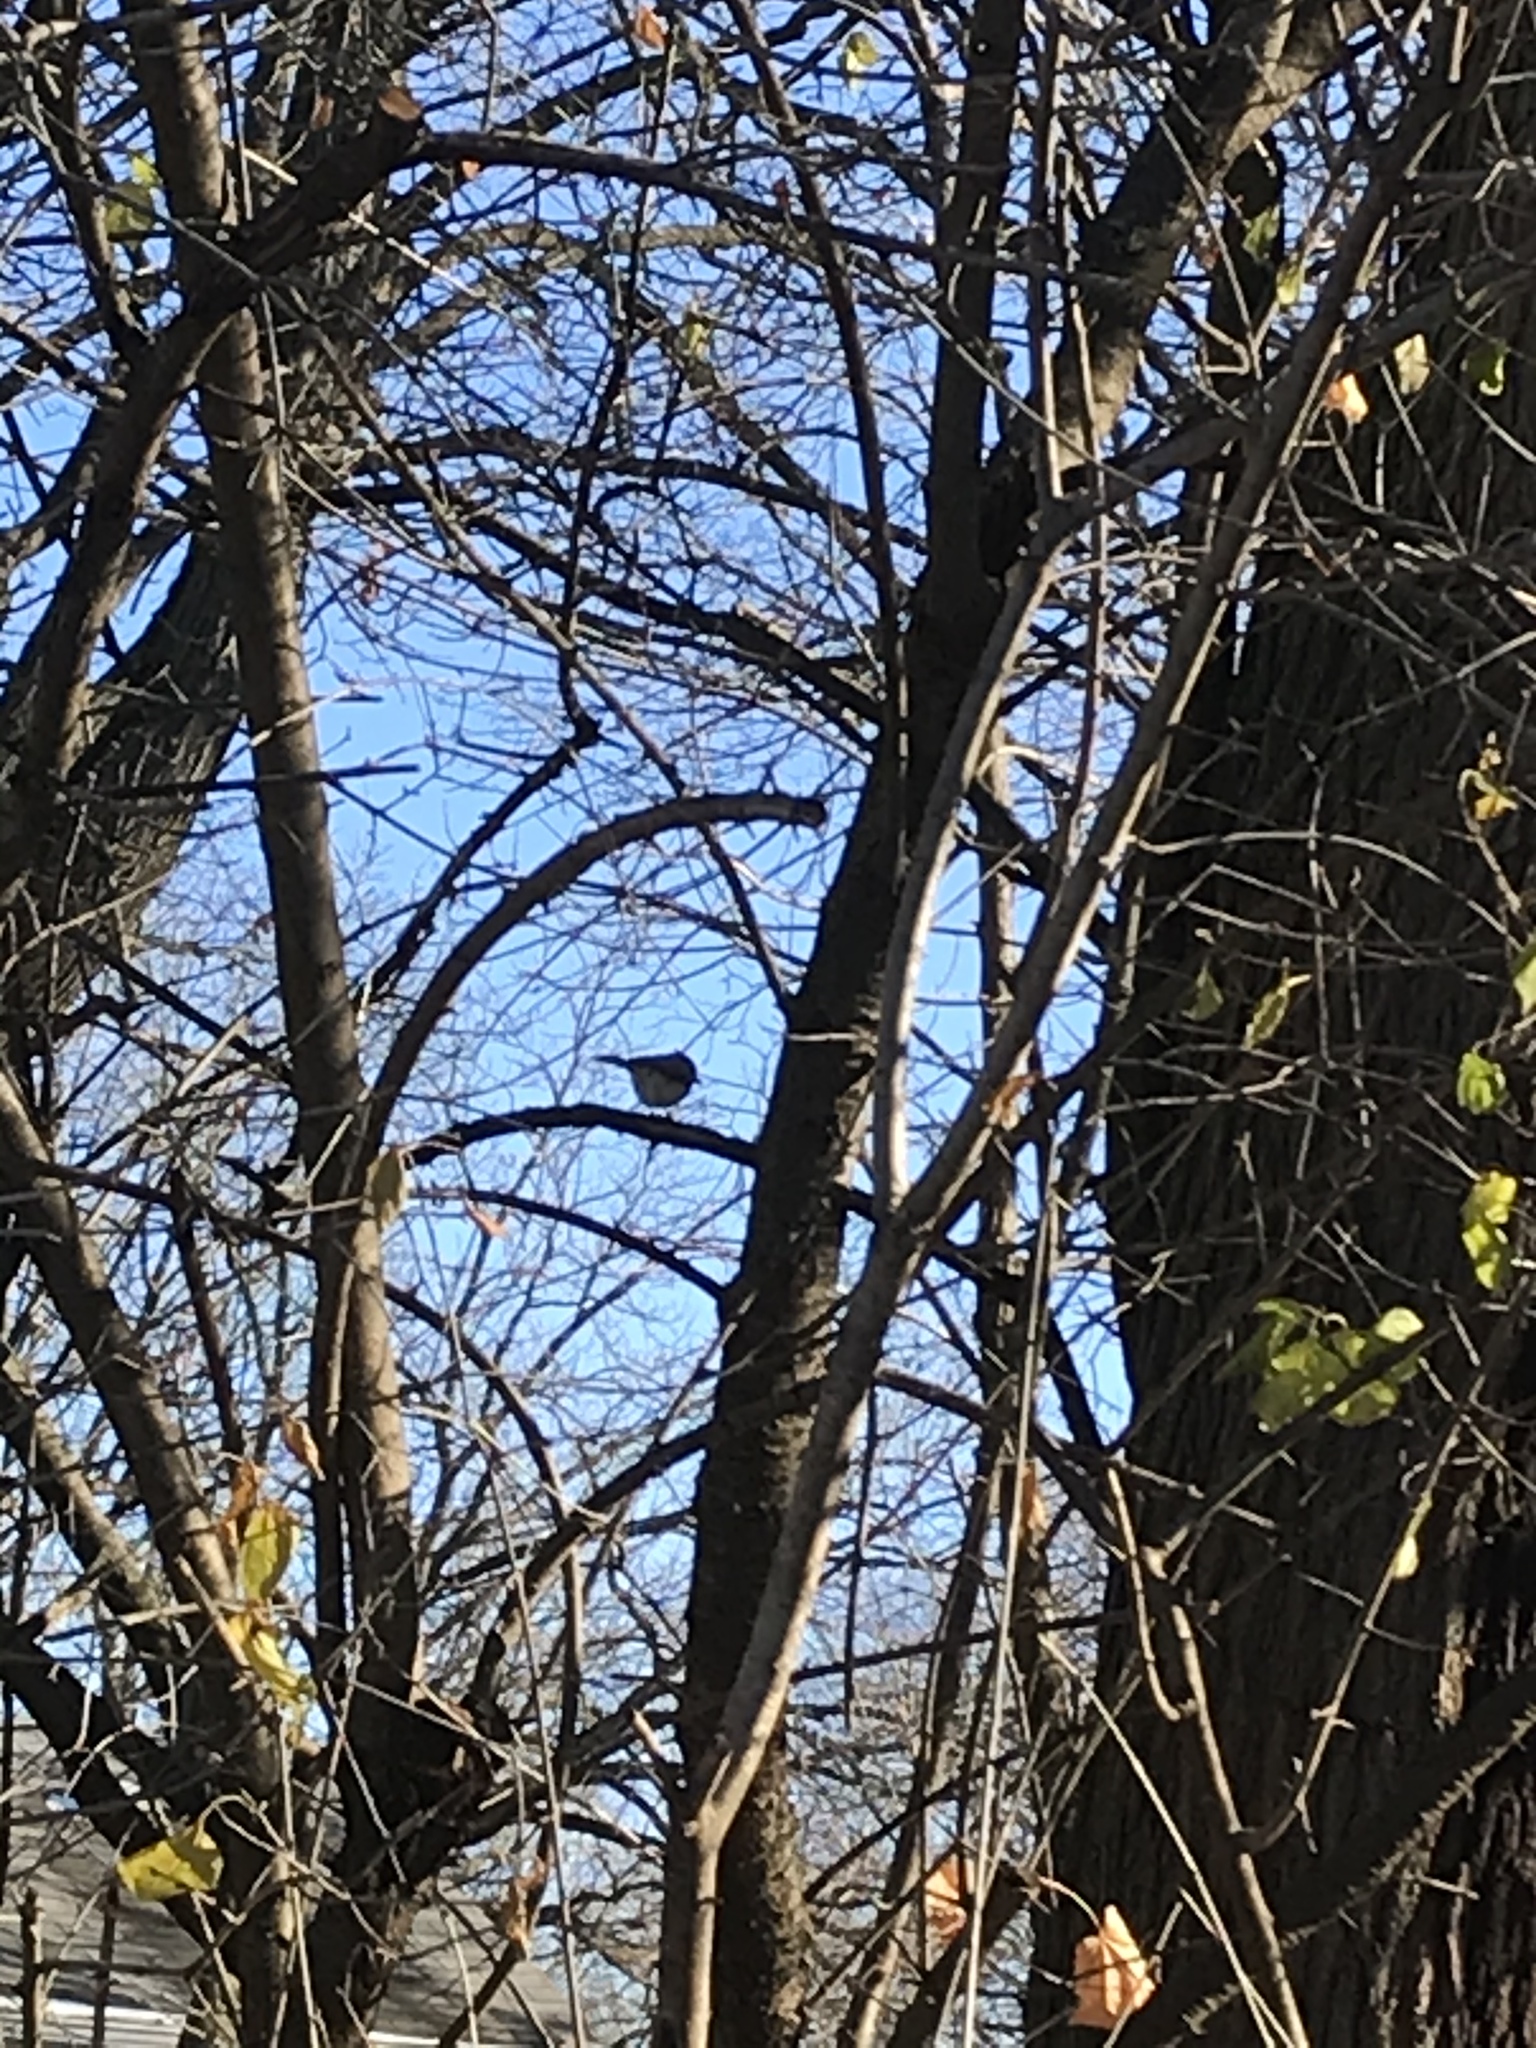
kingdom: Animalia
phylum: Chordata
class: Aves
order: Passeriformes
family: Paridae
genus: Baeolophus
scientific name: Baeolophus bicolor
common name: Tufted titmouse
